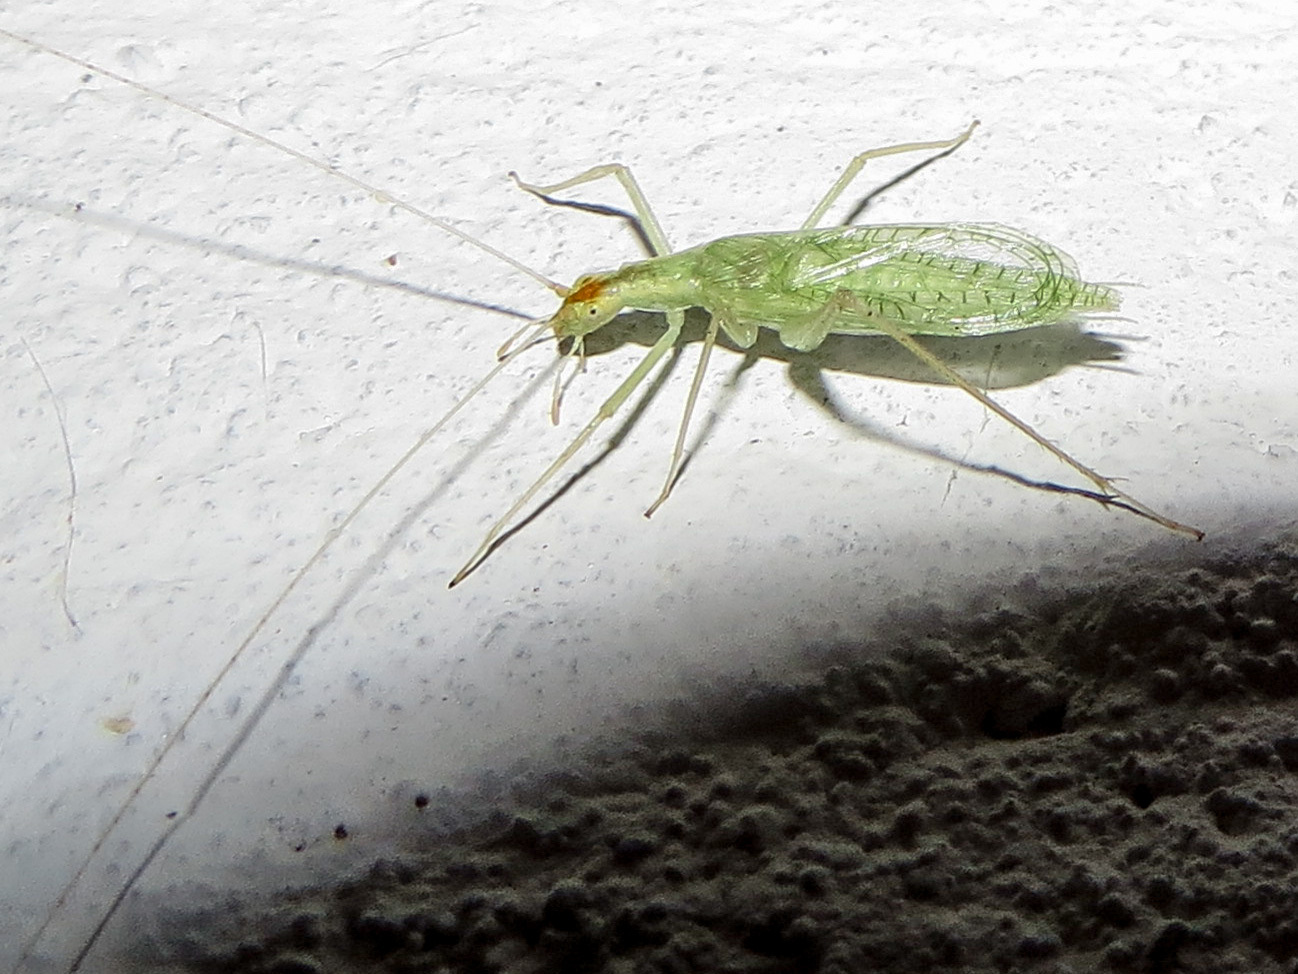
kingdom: Animalia
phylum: Arthropoda
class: Insecta
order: Orthoptera
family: Gryllidae
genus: Oecanthus
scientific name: Oecanthus niveus
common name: Narrow-winged tree cricket
